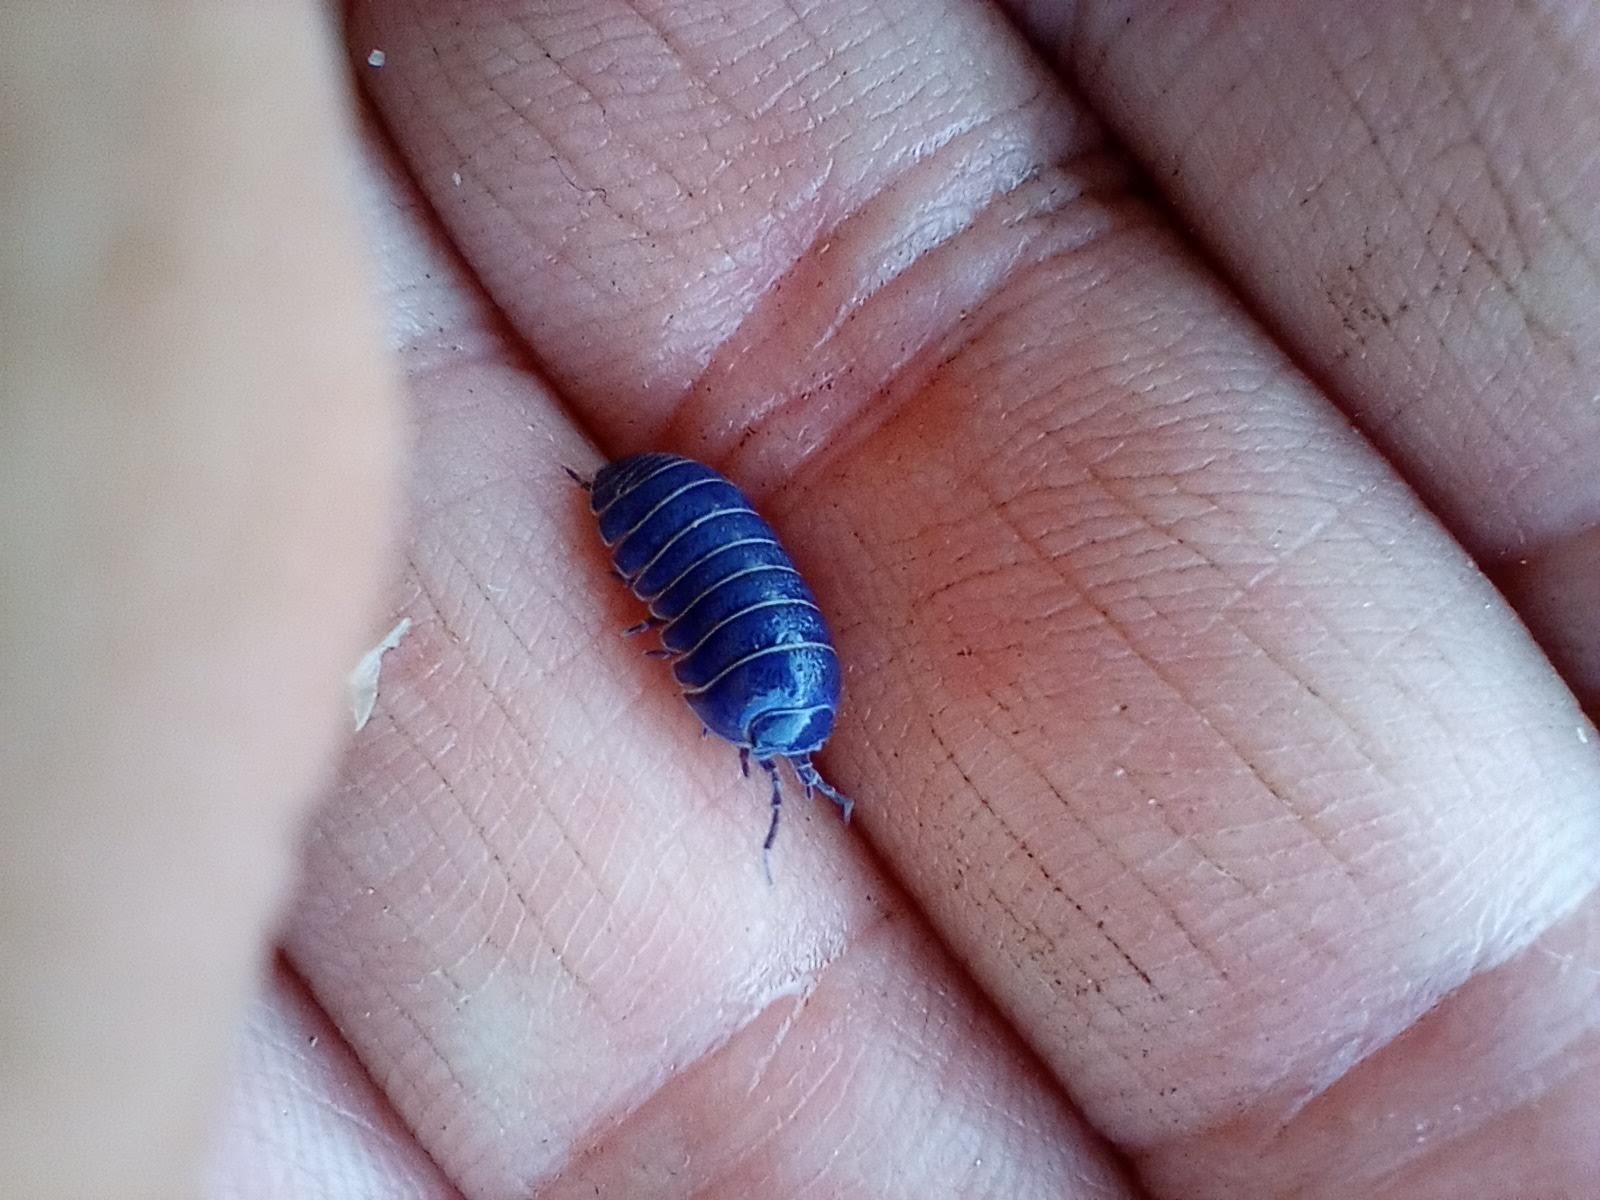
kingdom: Viruses
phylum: Nucleocytoviricota
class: Megaviricetes
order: Pimascovirales
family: Iridoviridae
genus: Iridovirus
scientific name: Iridovirus Invertebrate iridescent virus 31
